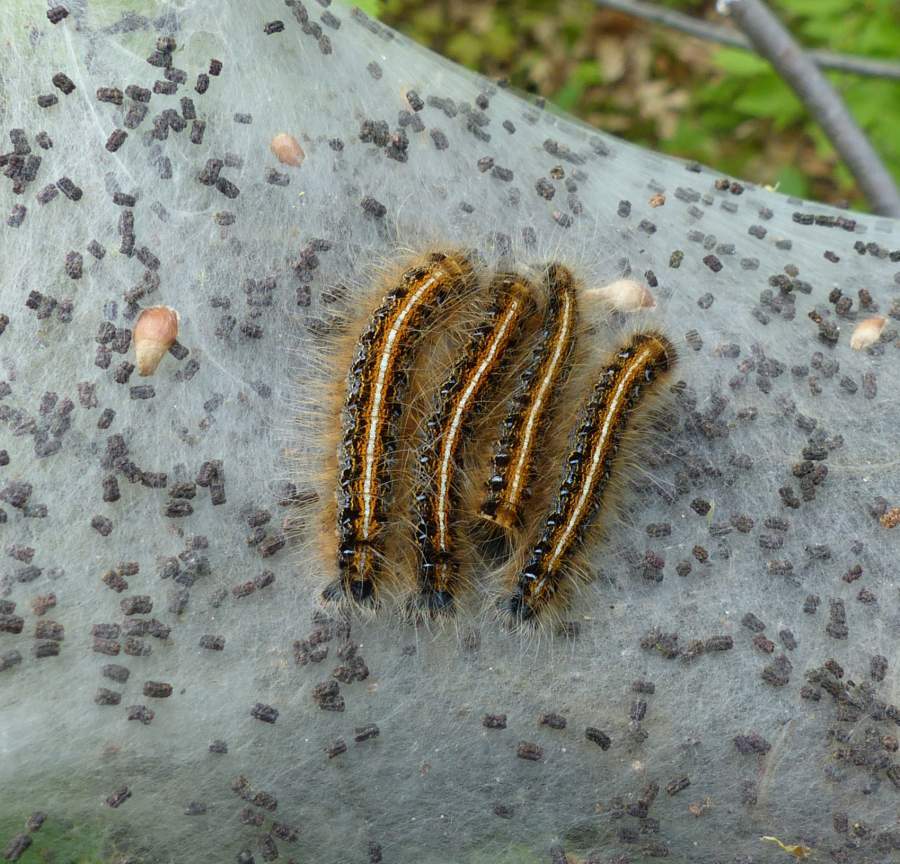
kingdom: Animalia
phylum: Arthropoda
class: Insecta
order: Lepidoptera
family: Lasiocampidae
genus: Malacosoma
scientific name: Malacosoma americana
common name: Eastern tent caterpillar moth
